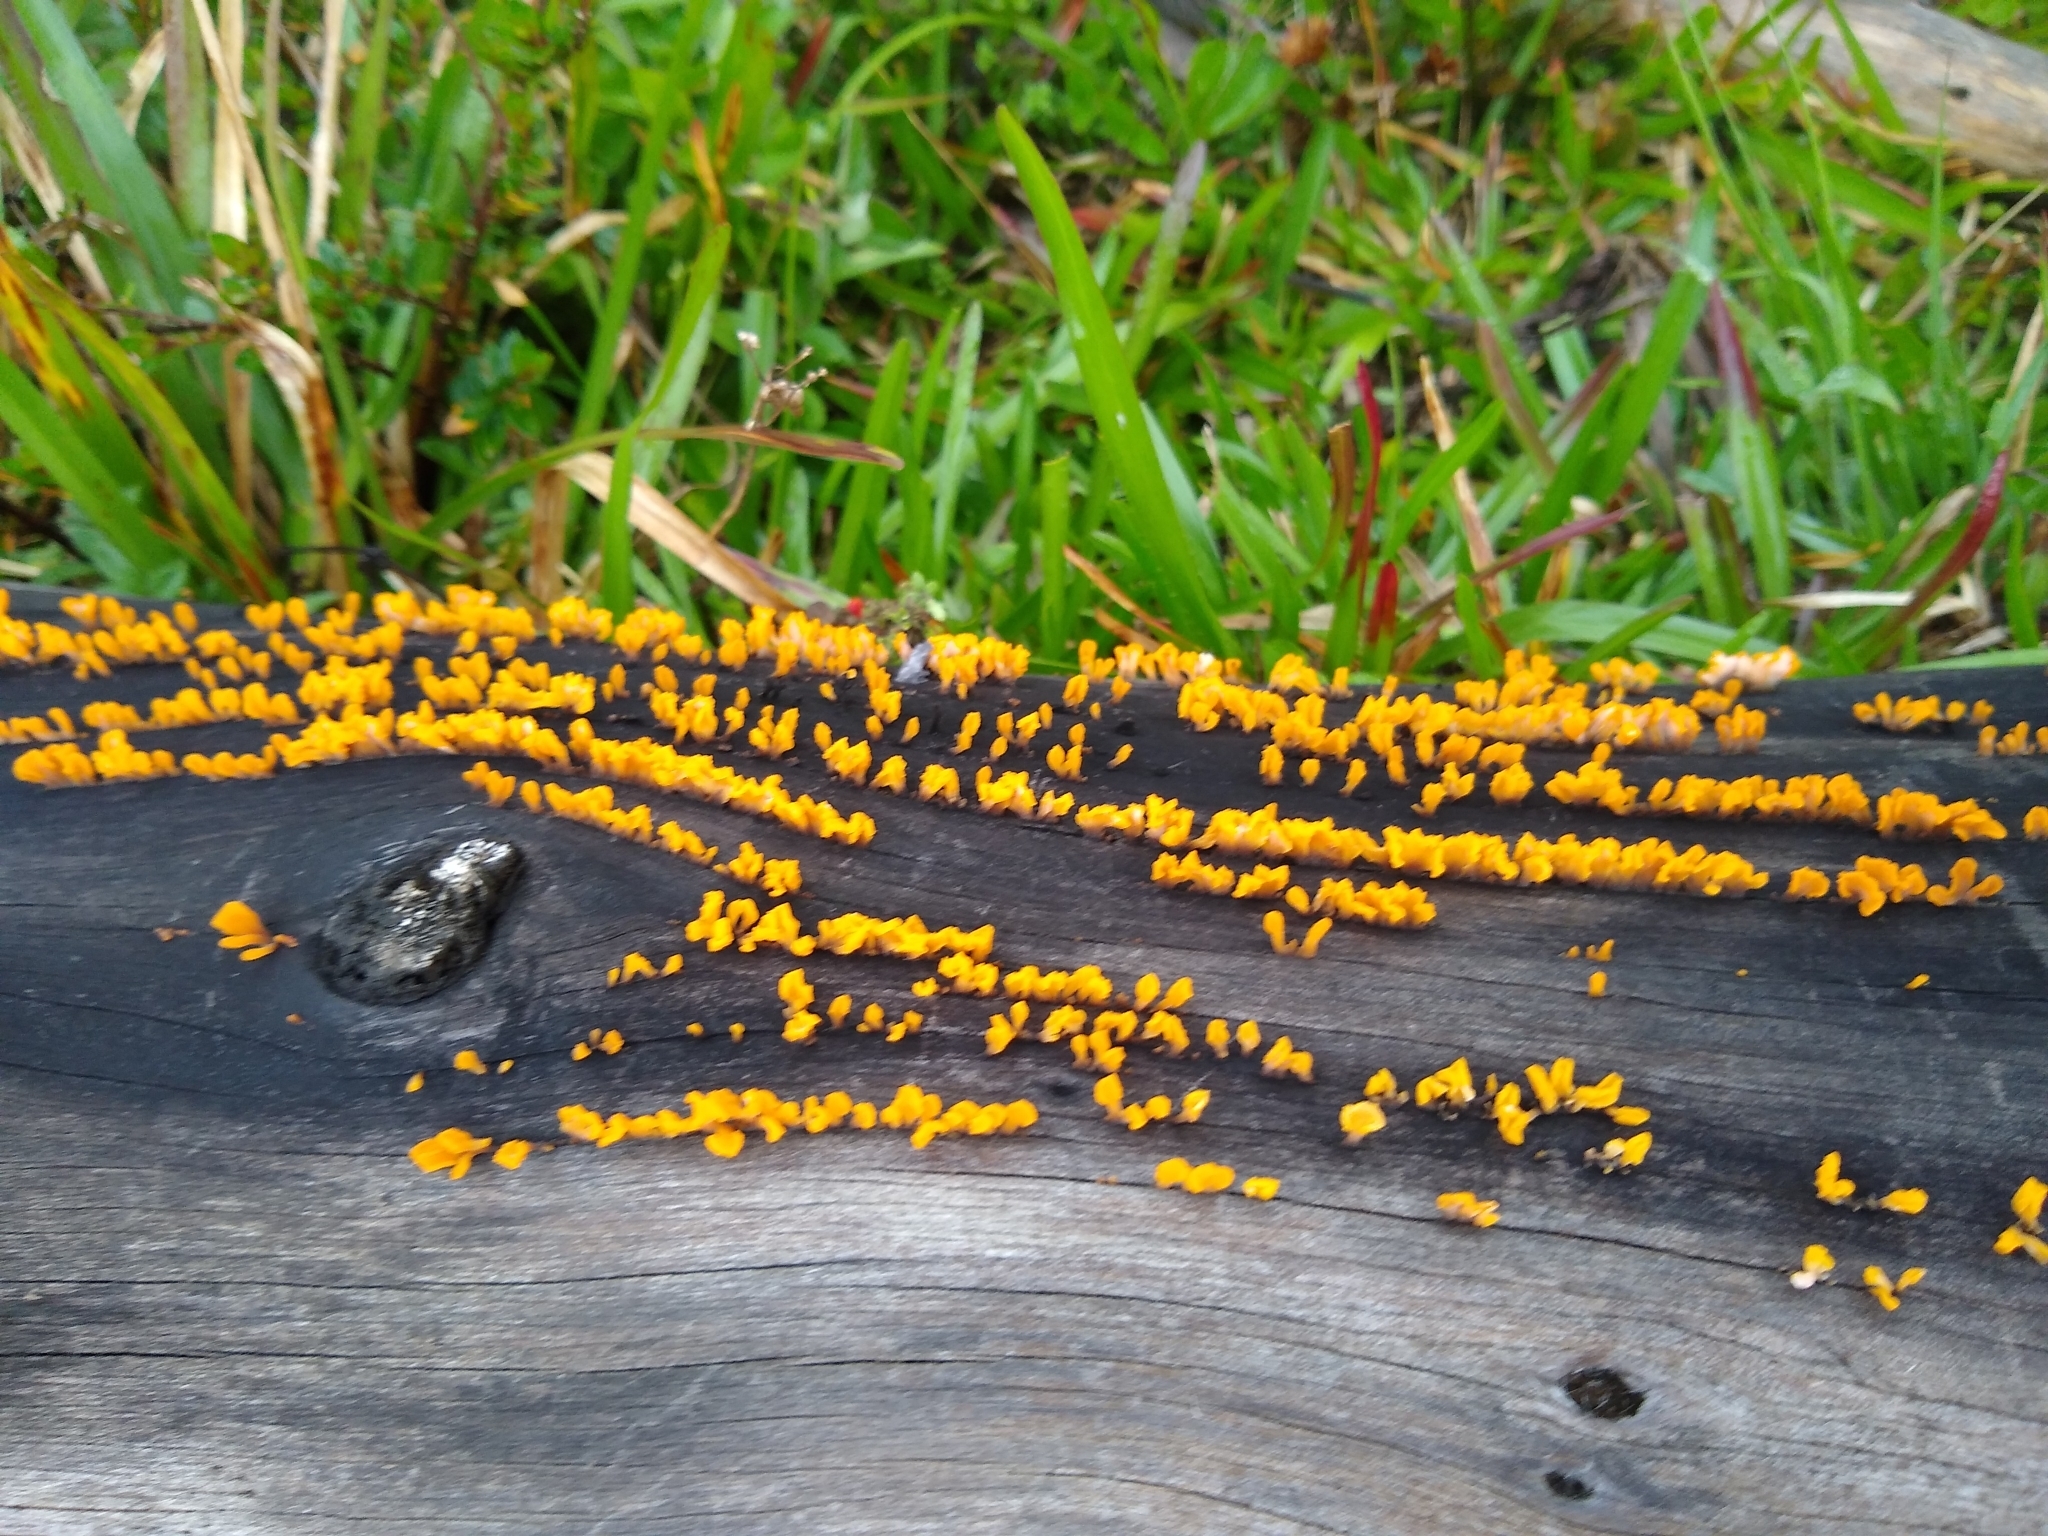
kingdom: Fungi
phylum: Basidiomycota
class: Dacrymycetes
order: Dacrymycetales
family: Dacrymycetaceae
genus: Dacrymyces
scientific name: Dacrymyces spathularius
